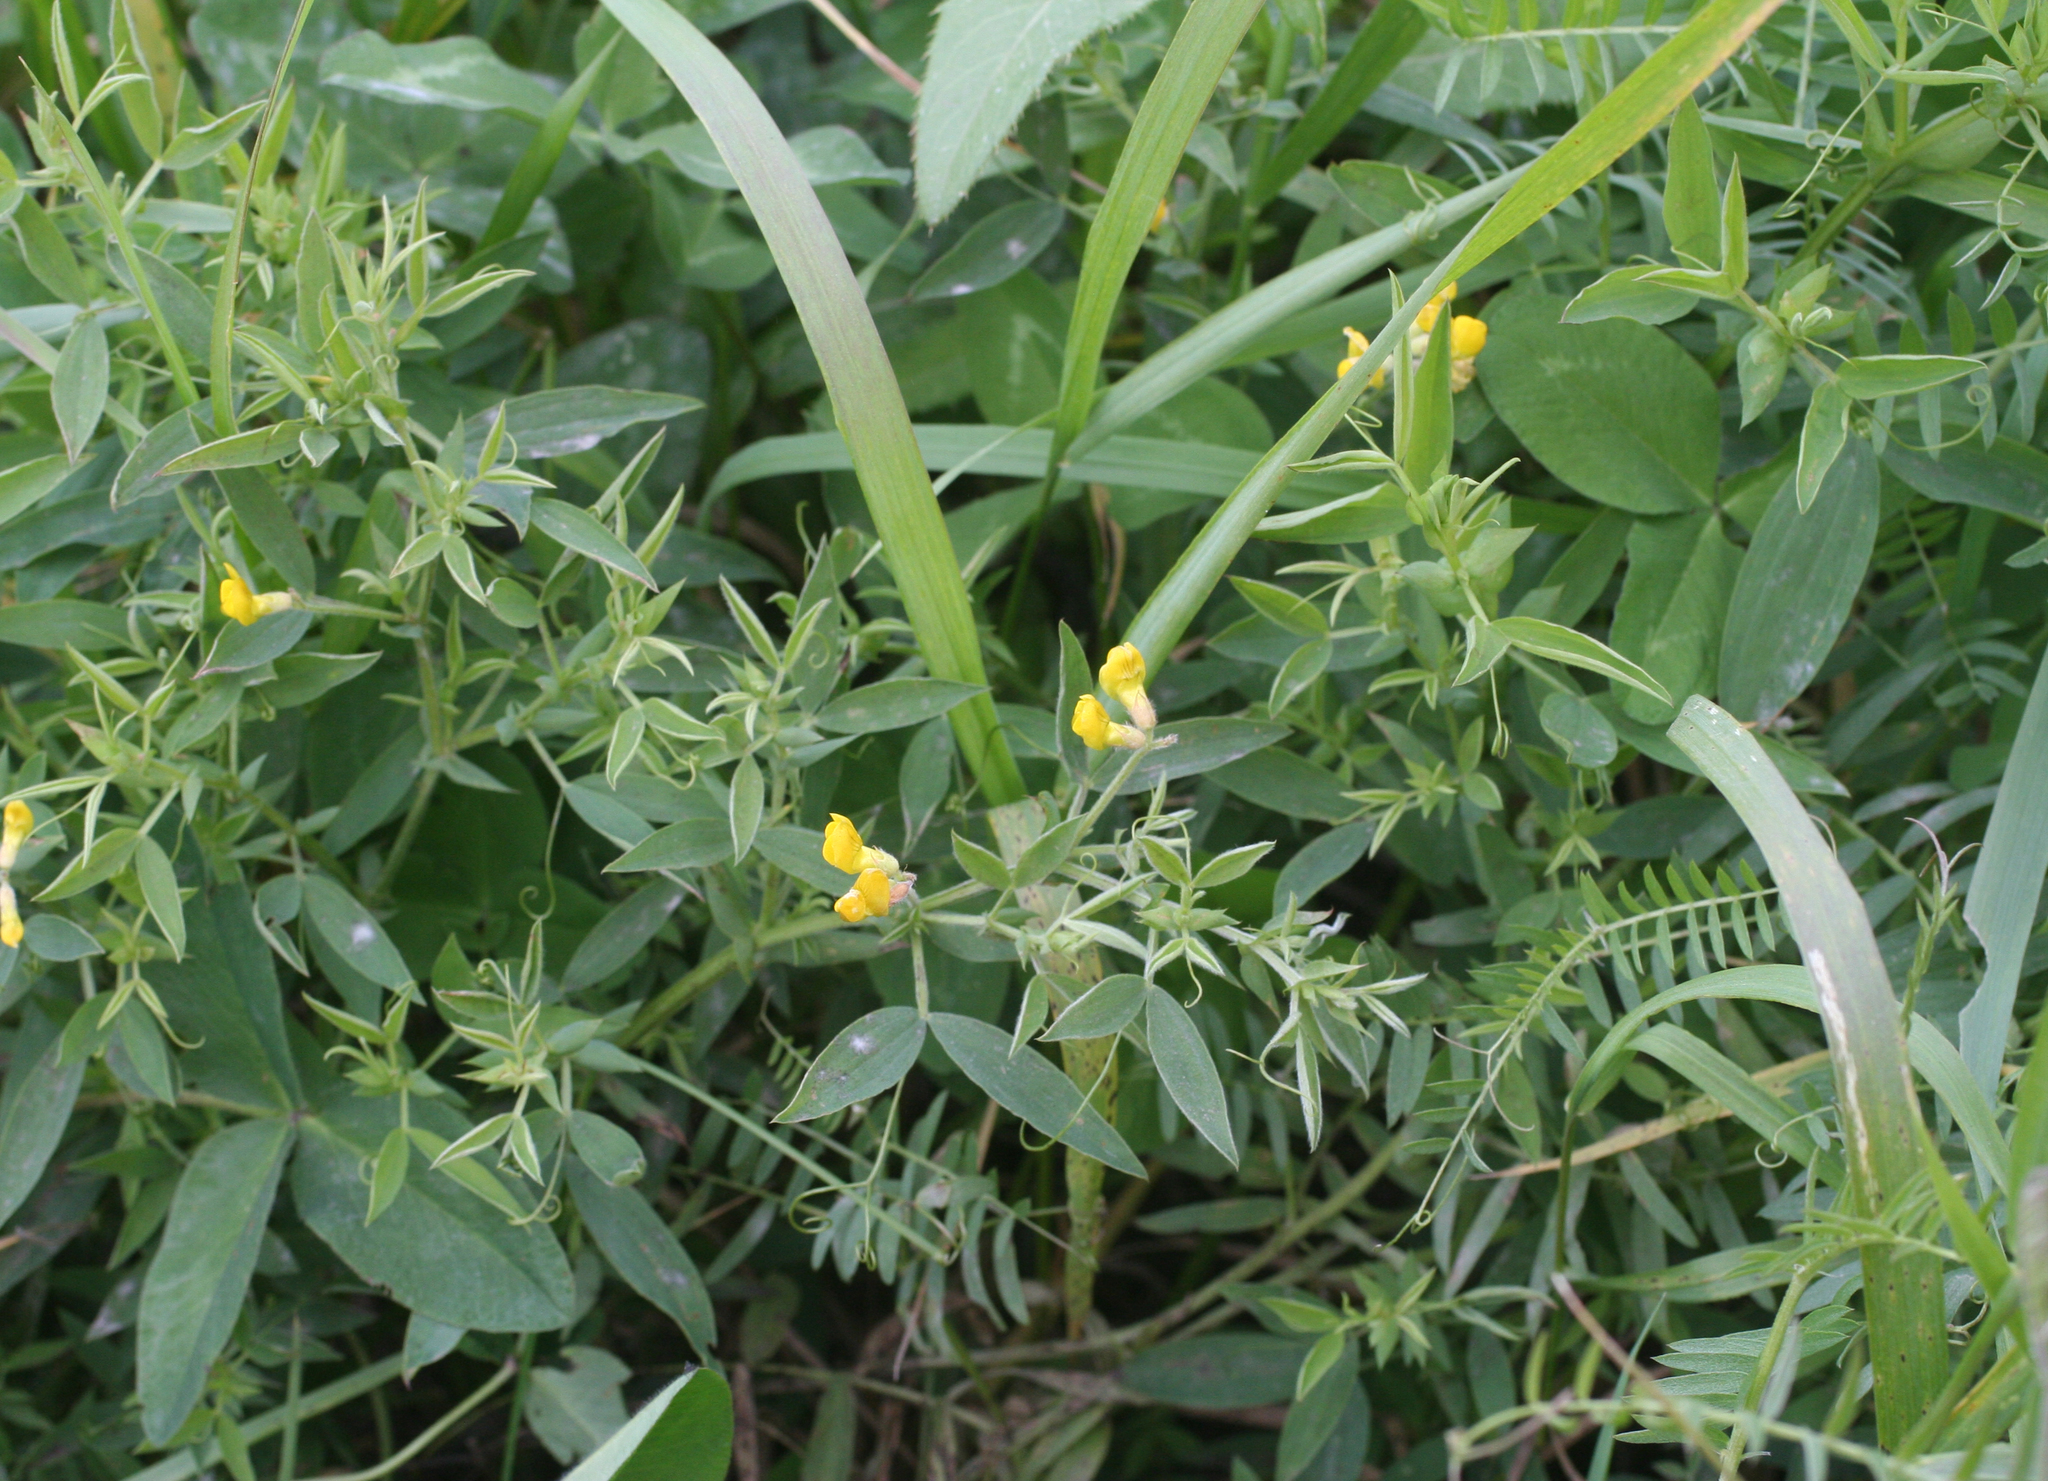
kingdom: Plantae
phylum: Tracheophyta
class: Magnoliopsida
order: Fabales
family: Fabaceae
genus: Lathyrus
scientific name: Lathyrus pratensis
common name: Meadow vetchling
